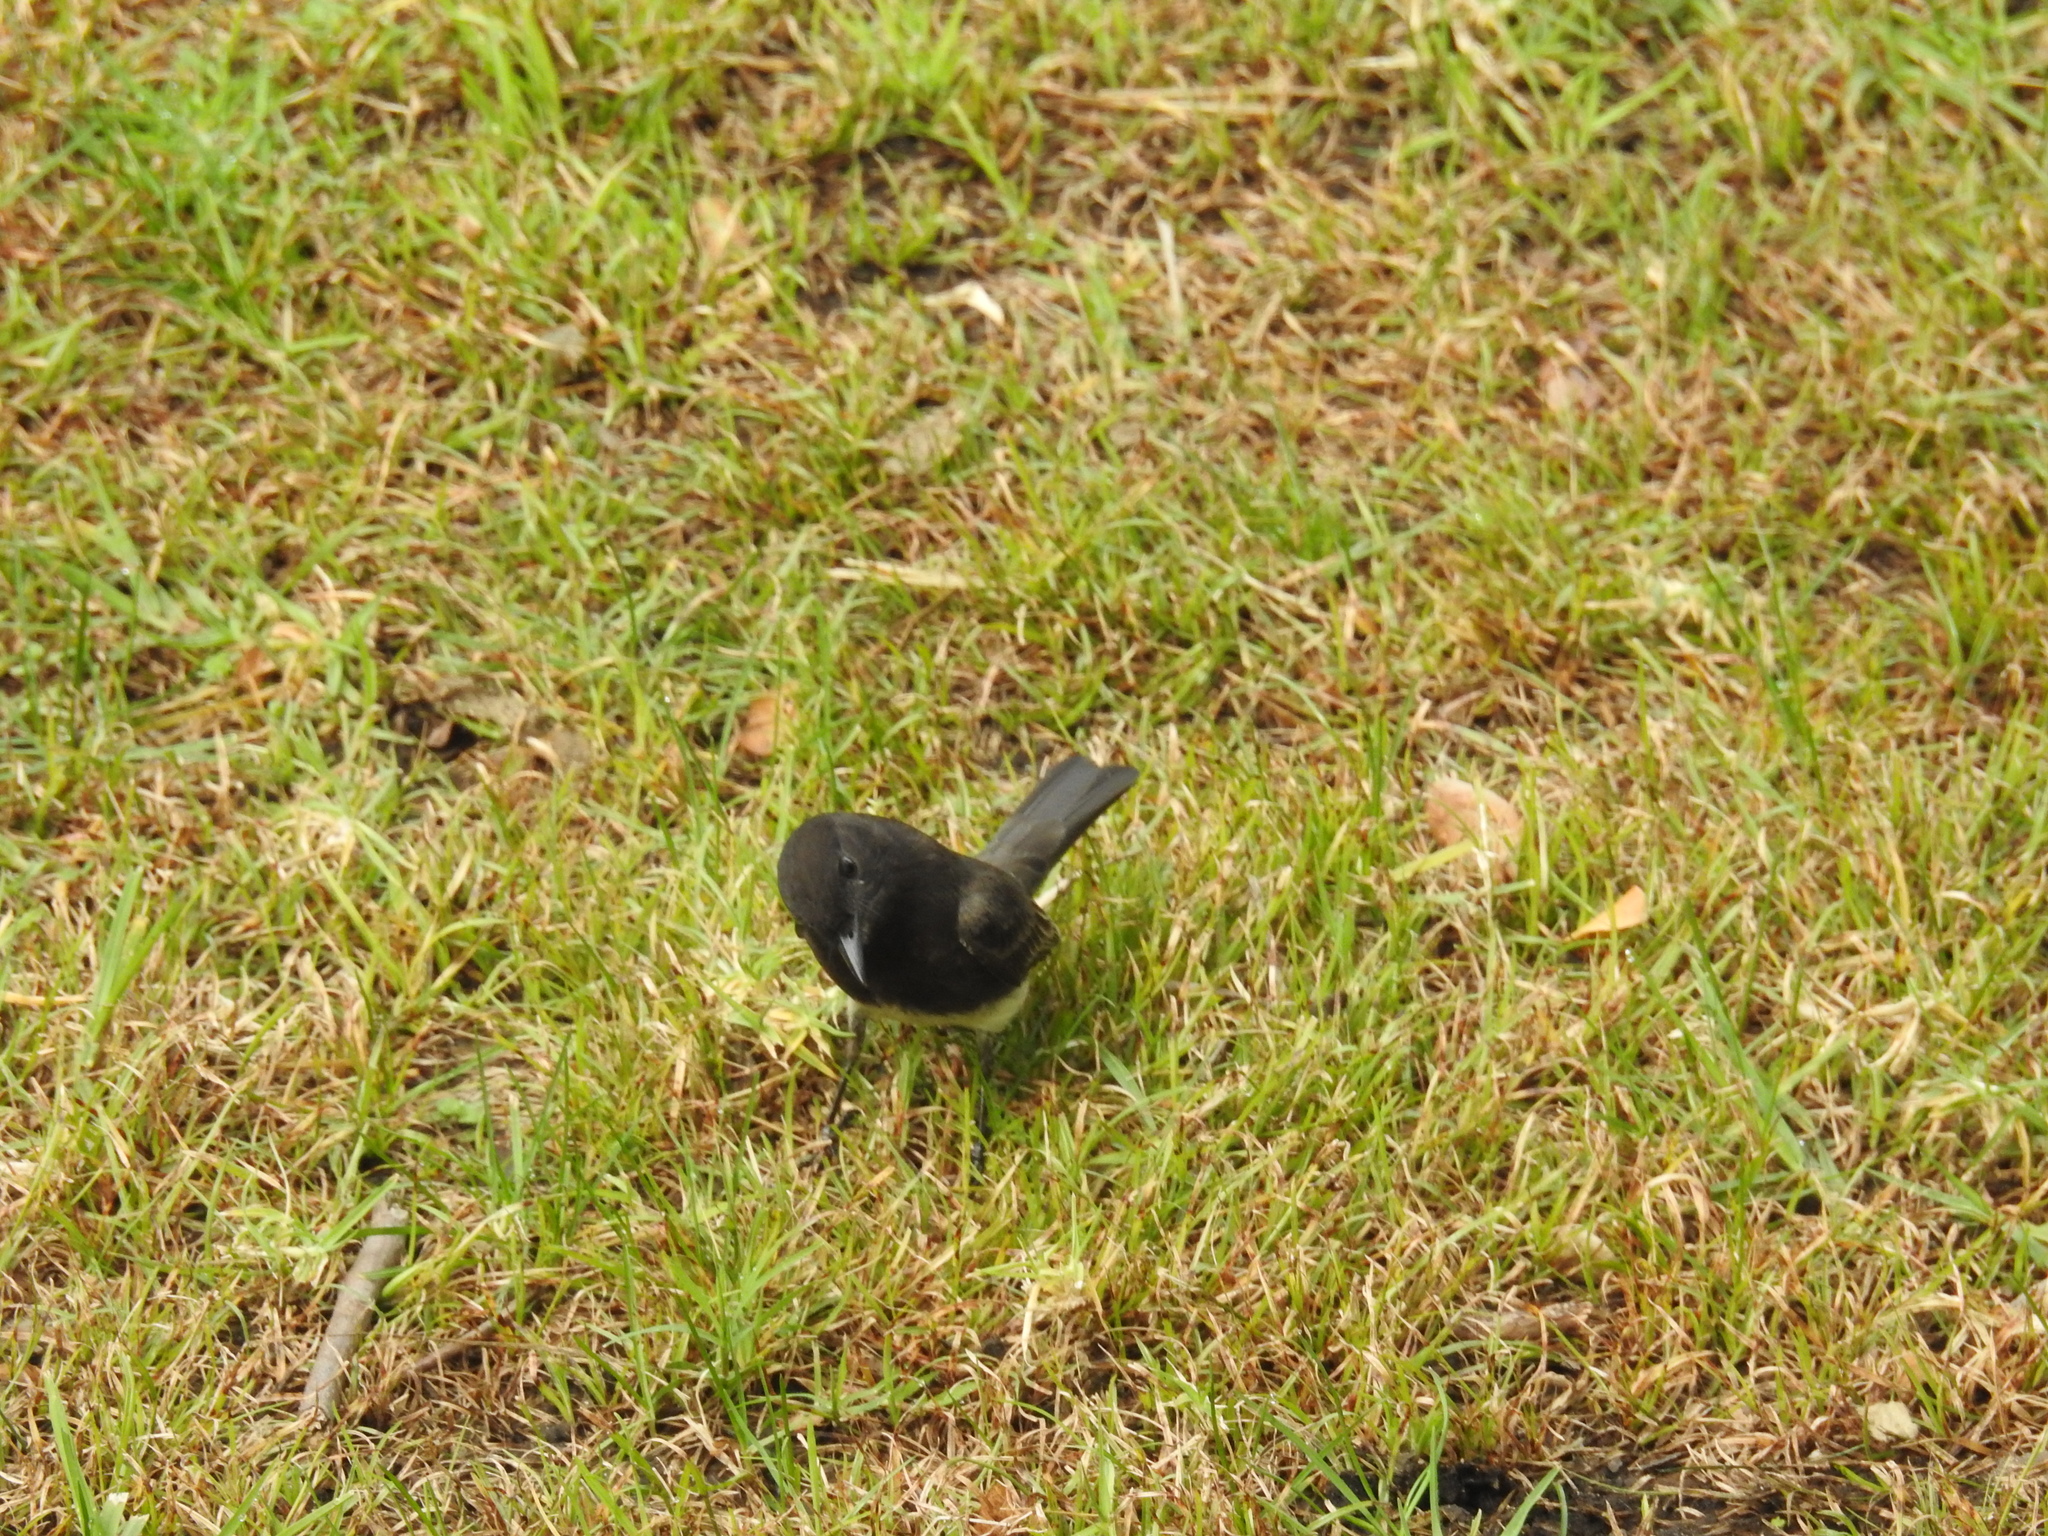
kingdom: Animalia
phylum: Chordata
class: Aves
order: Passeriformes
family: Tyrannidae
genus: Sayornis
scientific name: Sayornis nigricans
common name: Black phoebe
